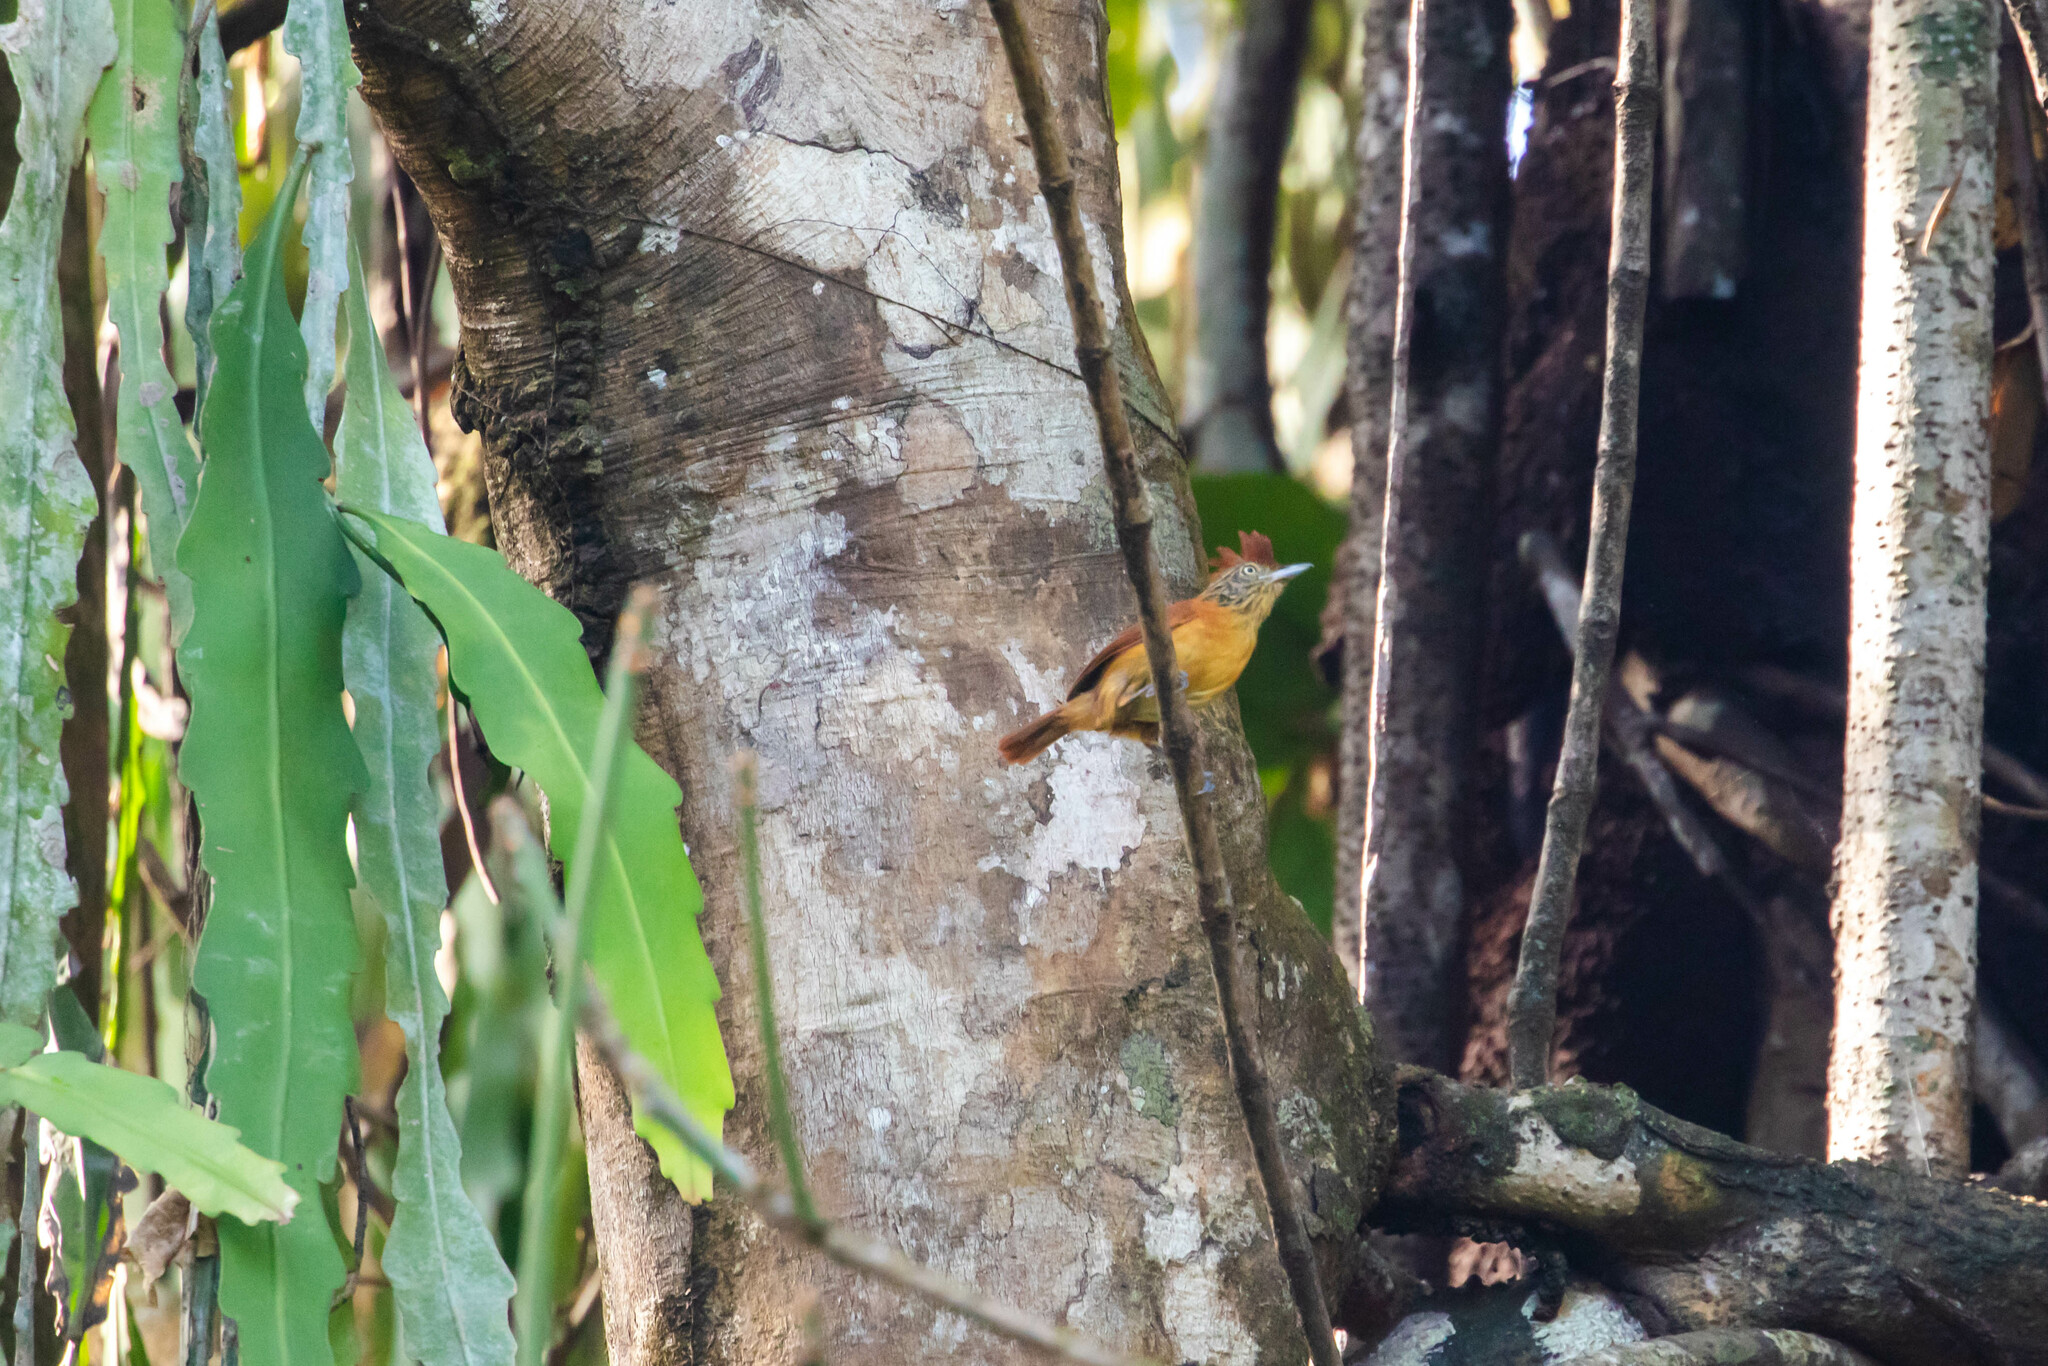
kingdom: Animalia
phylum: Chordata
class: Aves
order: Passeriformes
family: Thamnophilidae
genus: Thamnophilus
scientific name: Thamnophilus doliatus
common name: Barred antshrike
